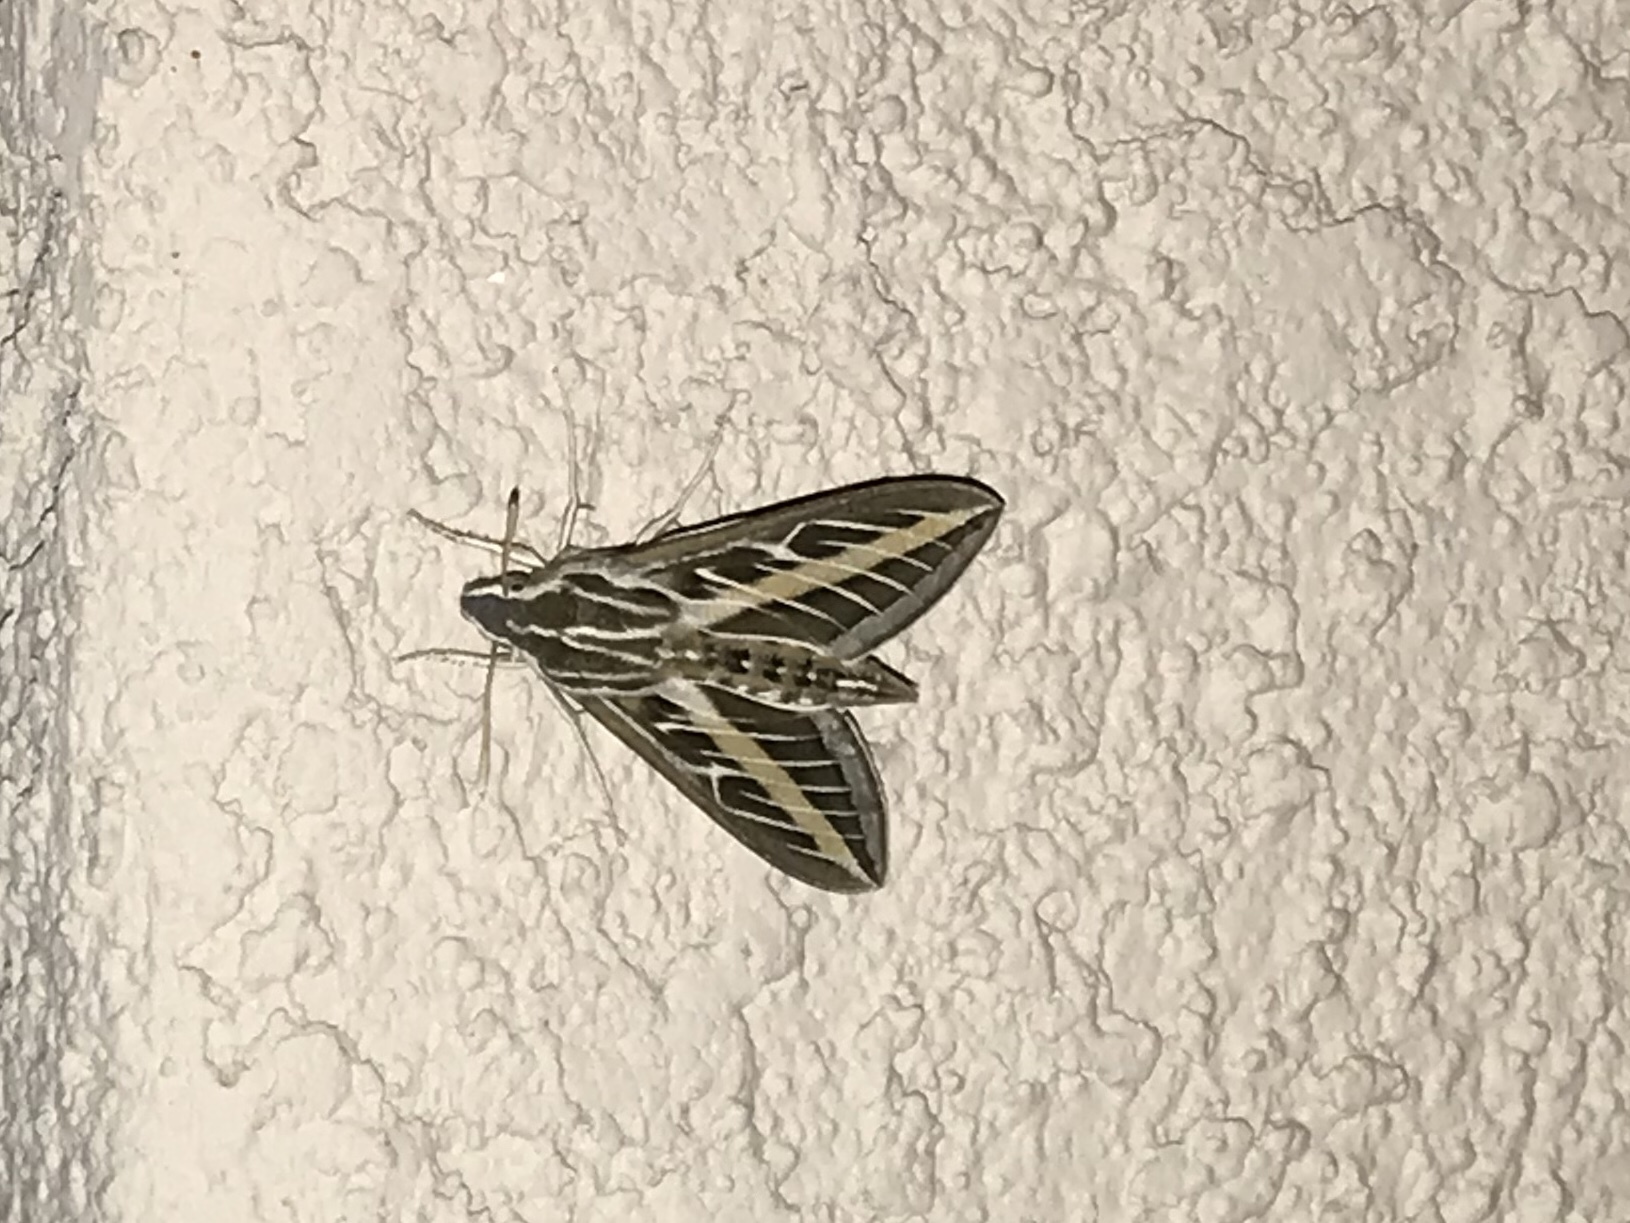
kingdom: Animalia
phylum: Arthropoda
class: Insecta
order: Lepidoptera
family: Sphingidae
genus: Hyles
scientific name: Hyles lineata
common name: White-lined sphinx
